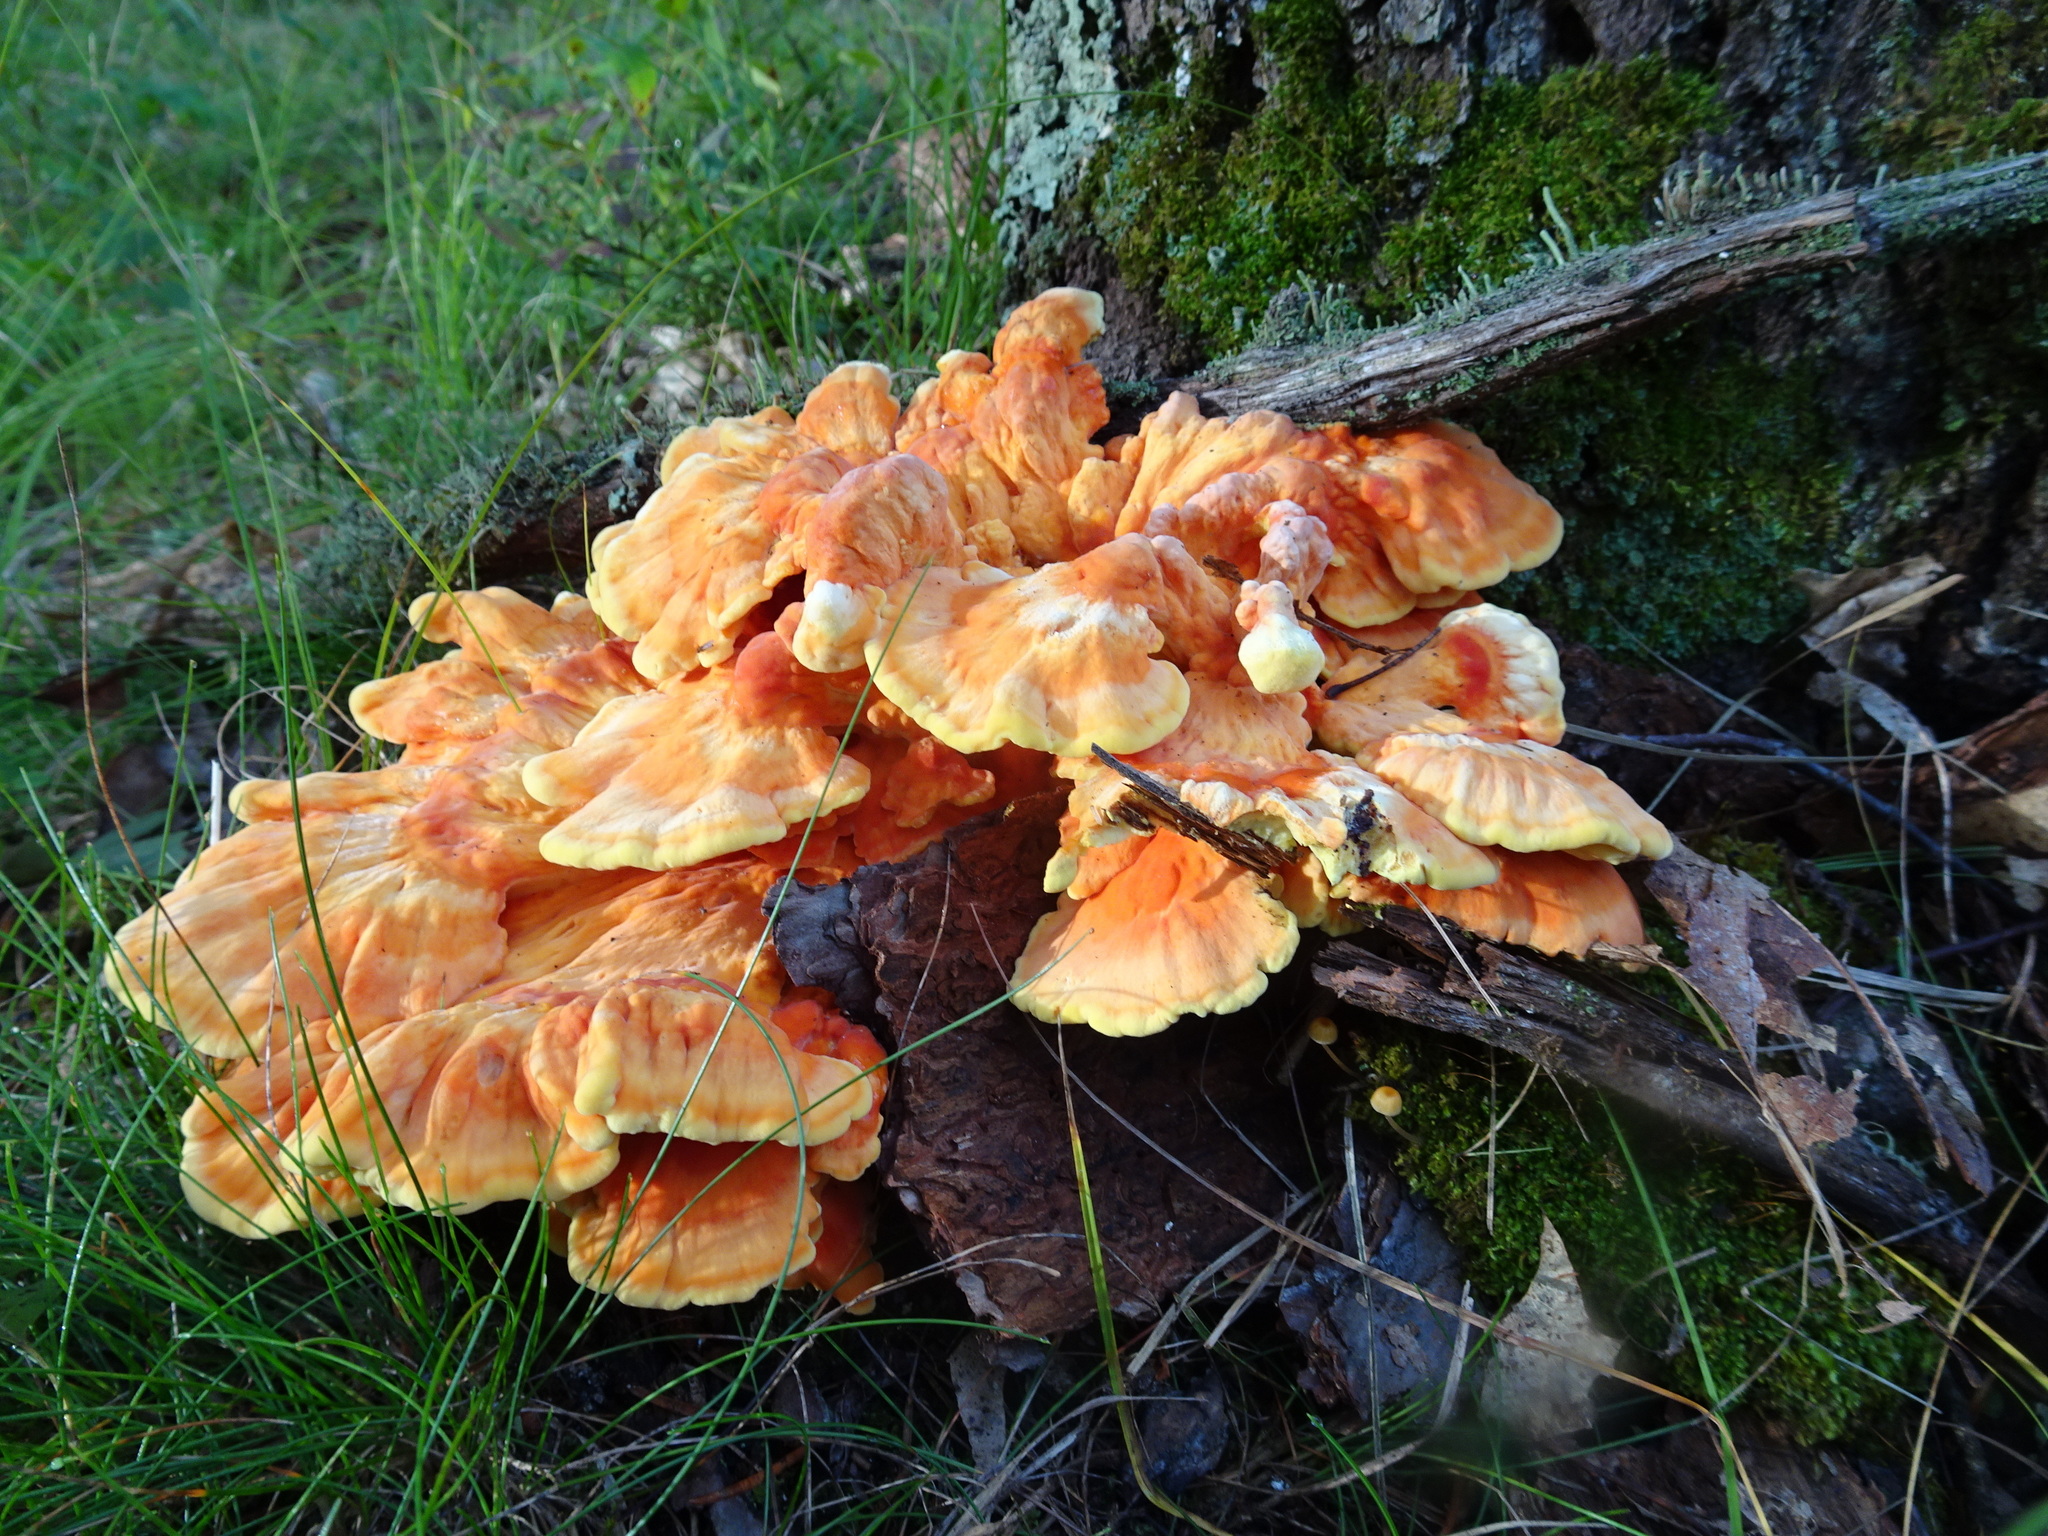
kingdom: Fungi
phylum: Basidiomycota
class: Agaricomycetes
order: Polyporales
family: Laetiporaceae
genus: Laetiporus
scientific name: Laetiporus sulphureus
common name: Chicken of the woods
